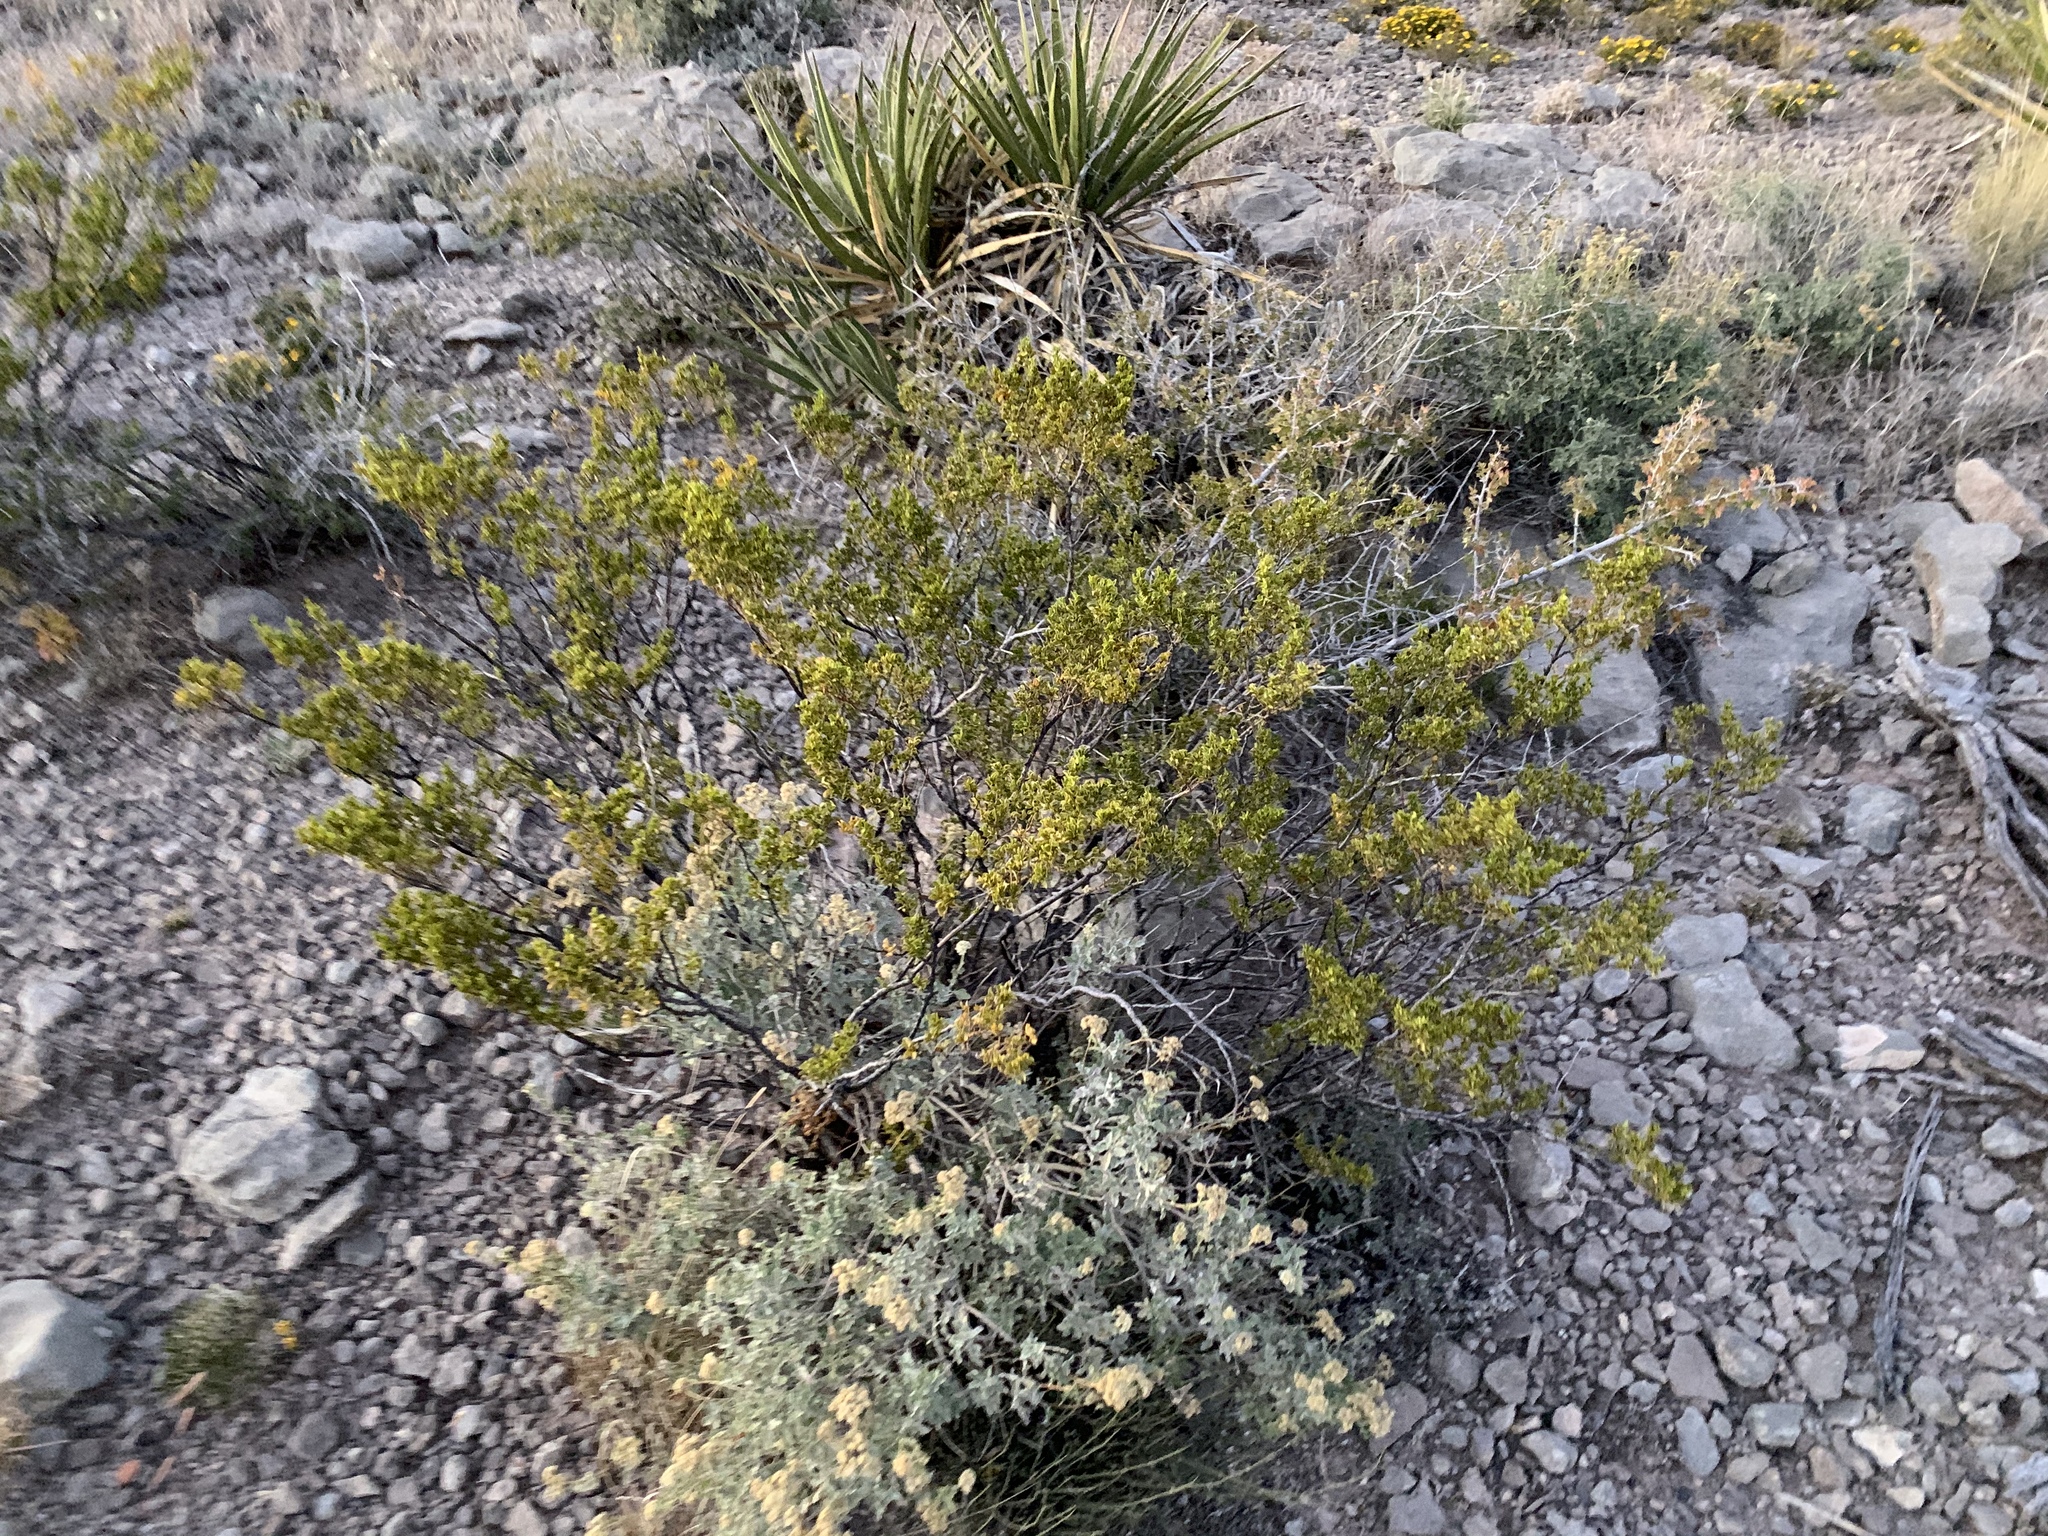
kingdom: Plantae
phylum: Tracheophyta
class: Magnoliopsida
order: Zygophyllales
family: Zygophyllaceae
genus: Larrea
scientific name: Larrea tridentata
